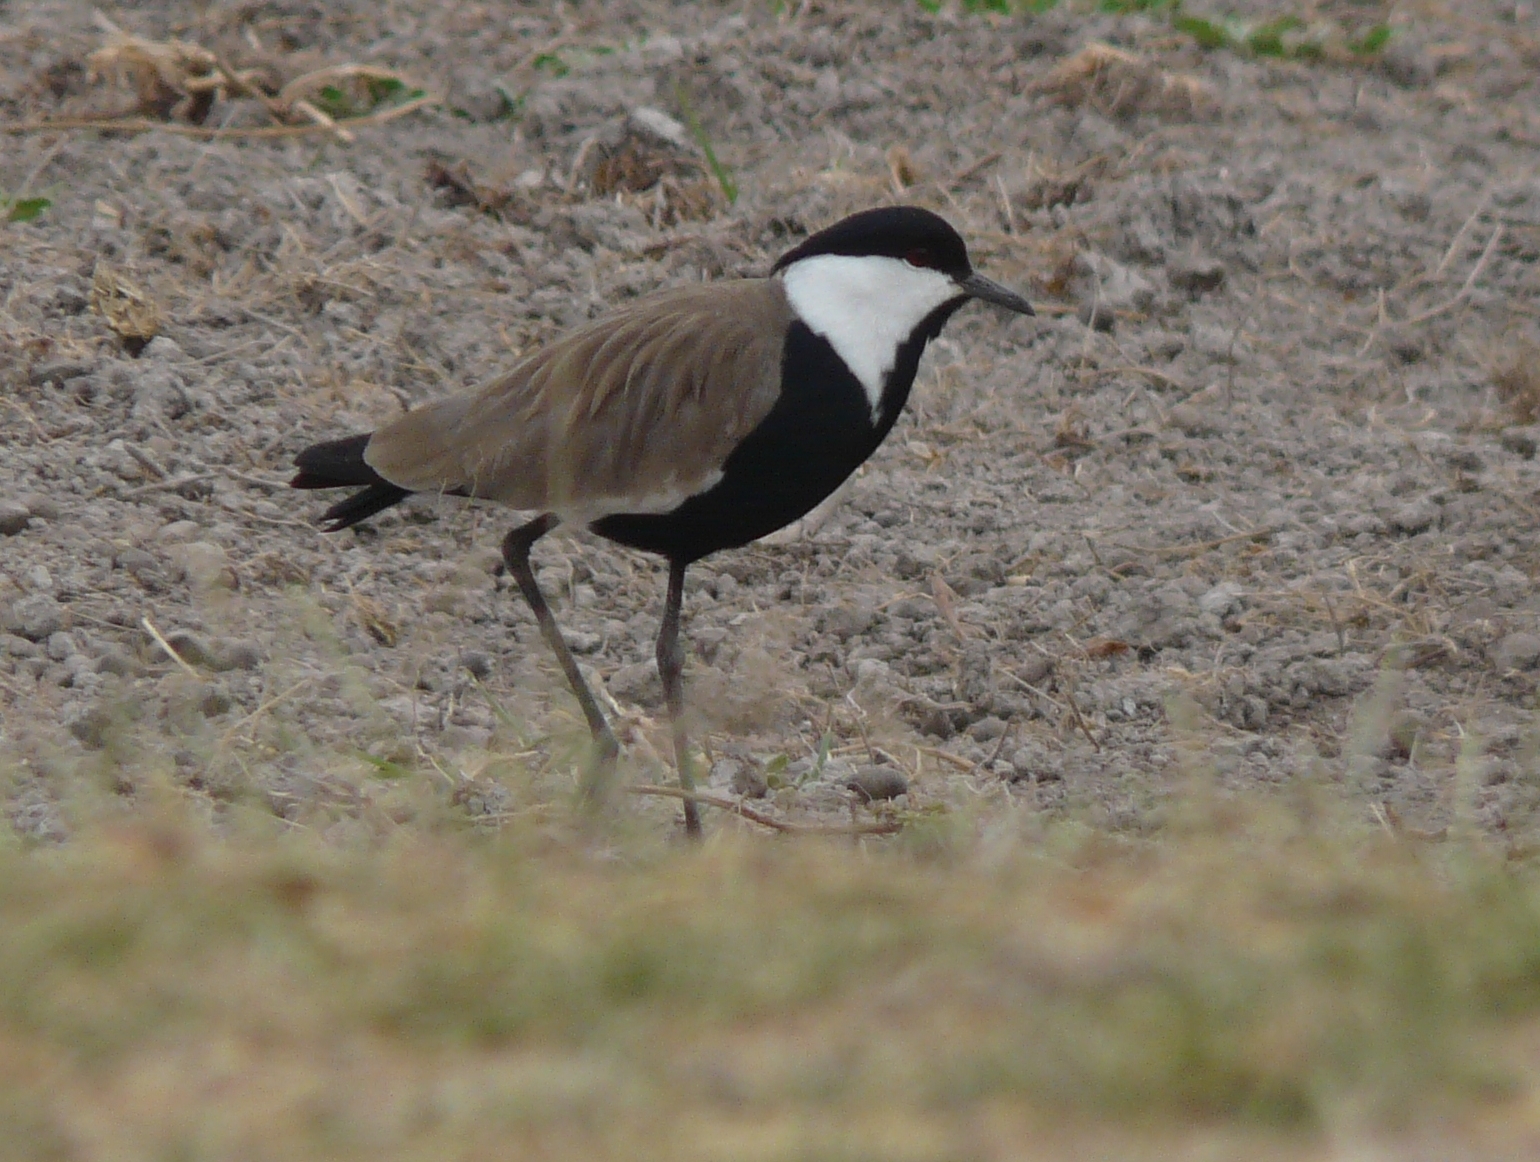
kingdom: Animalia
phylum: Chordata
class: Aves
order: Charadriiformes
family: Charadriidae
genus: Vanellus
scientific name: Vanellus spinosus
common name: Spur-winged lapwing
